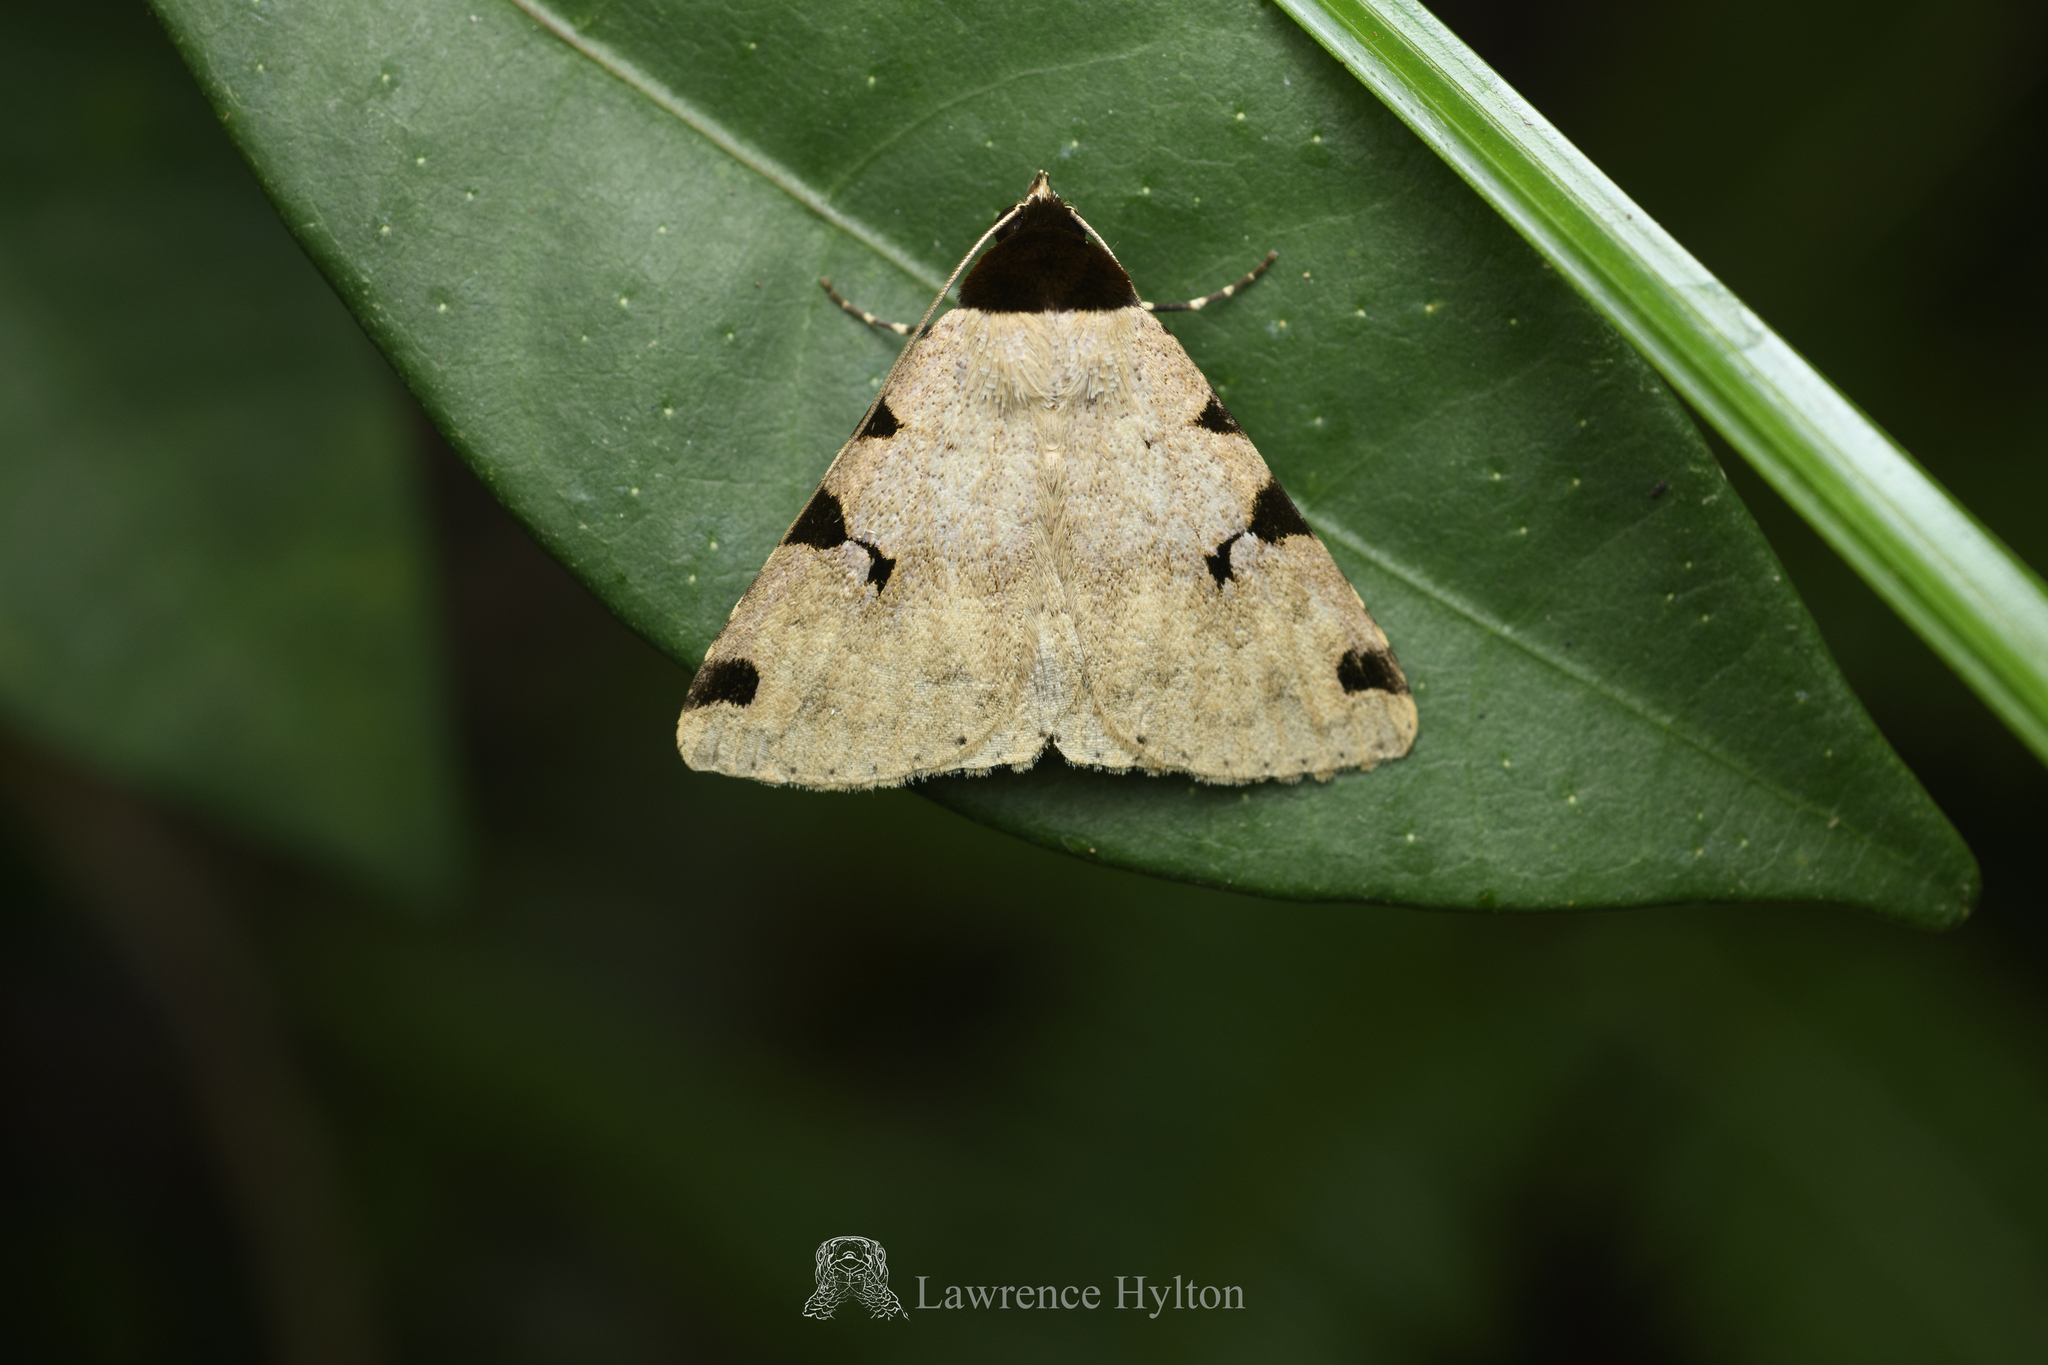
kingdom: Animalia
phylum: Arthropoda
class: Insecta
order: Lepidoptera
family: Erebidae
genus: Rema
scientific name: Rema costimacula
